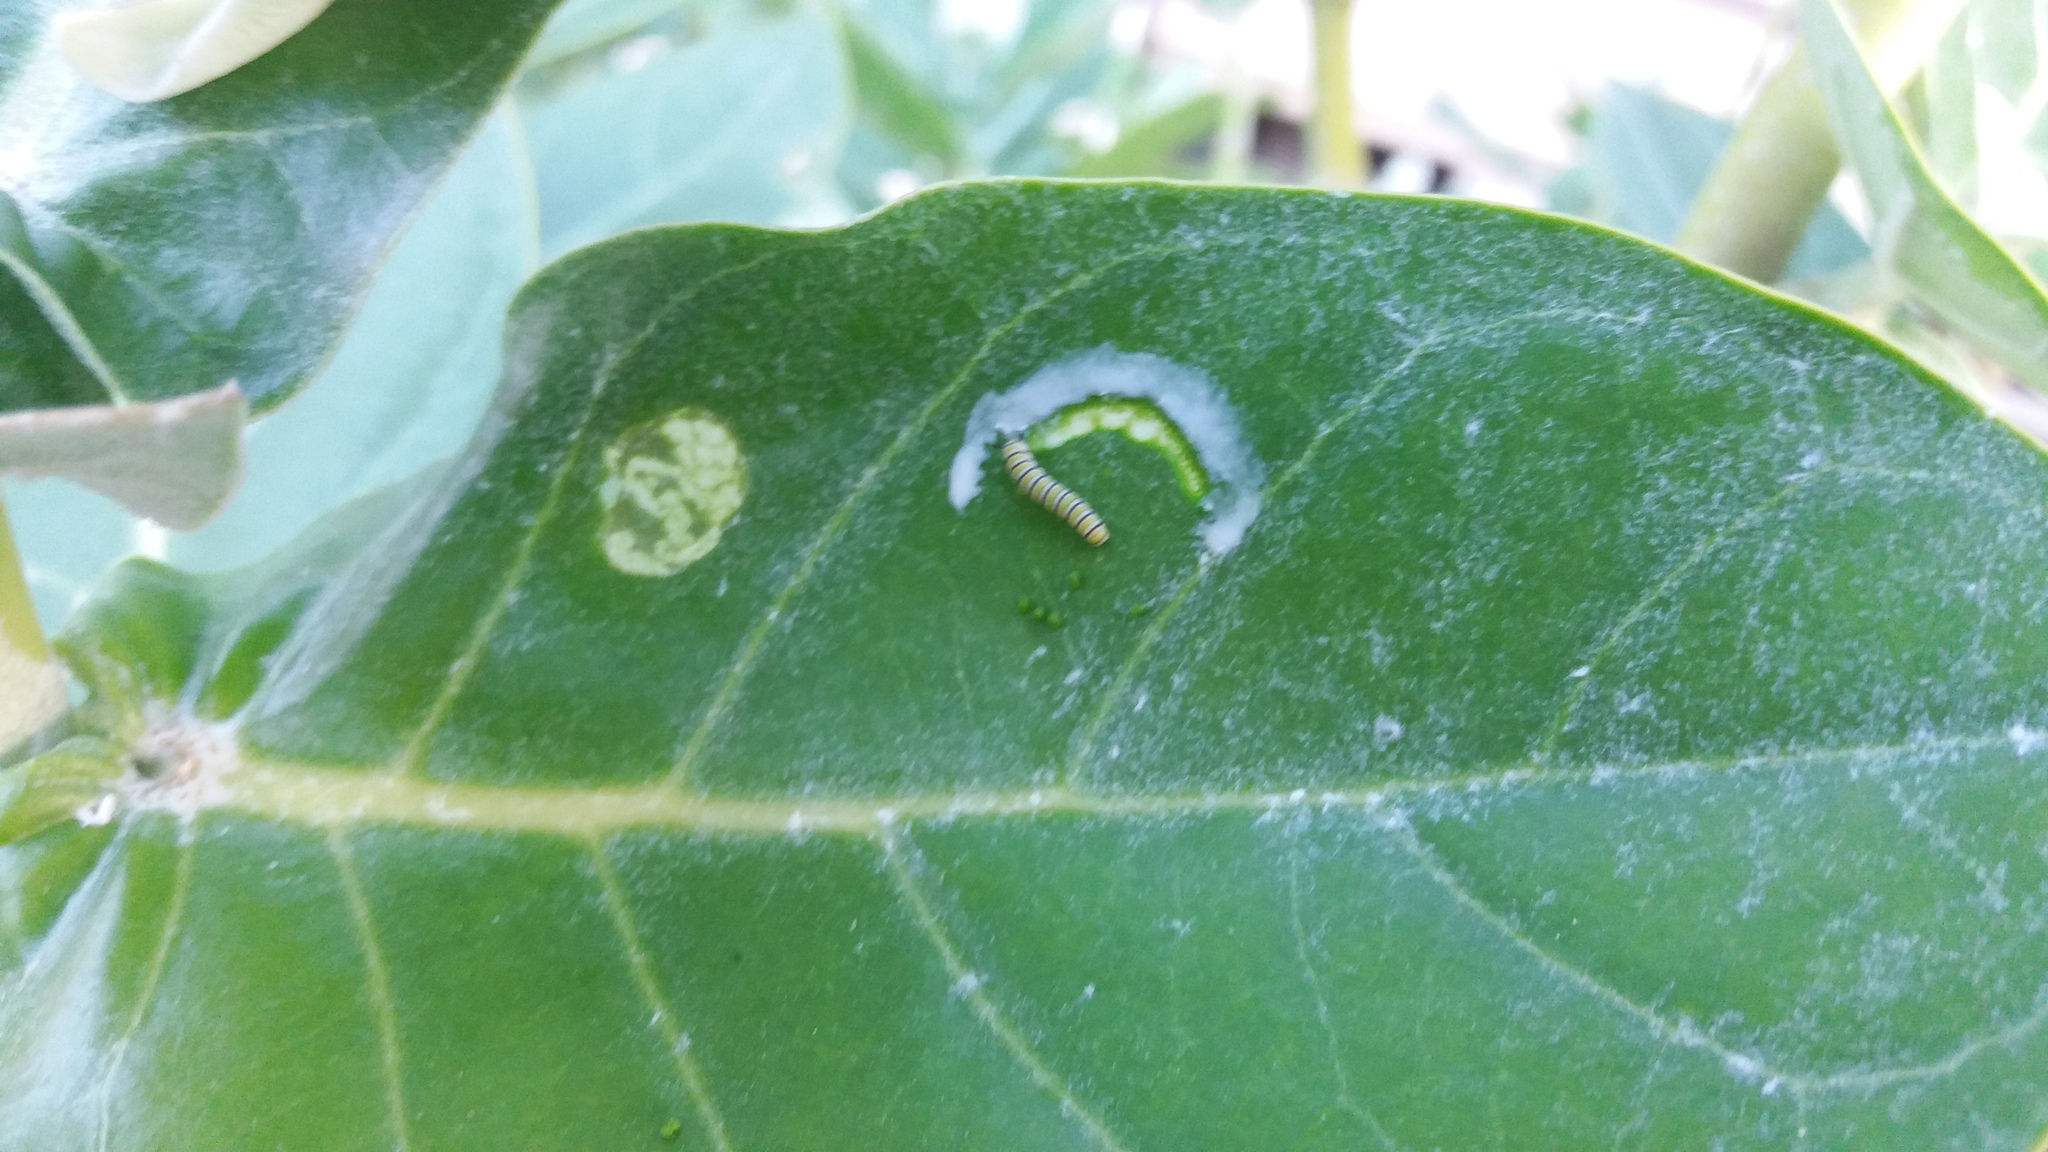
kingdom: Animalia
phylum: Arthropoda
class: Insecta
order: Lepidoptera
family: Nymphalidae
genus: Danaus
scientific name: Danaus plexippus
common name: Monarch
